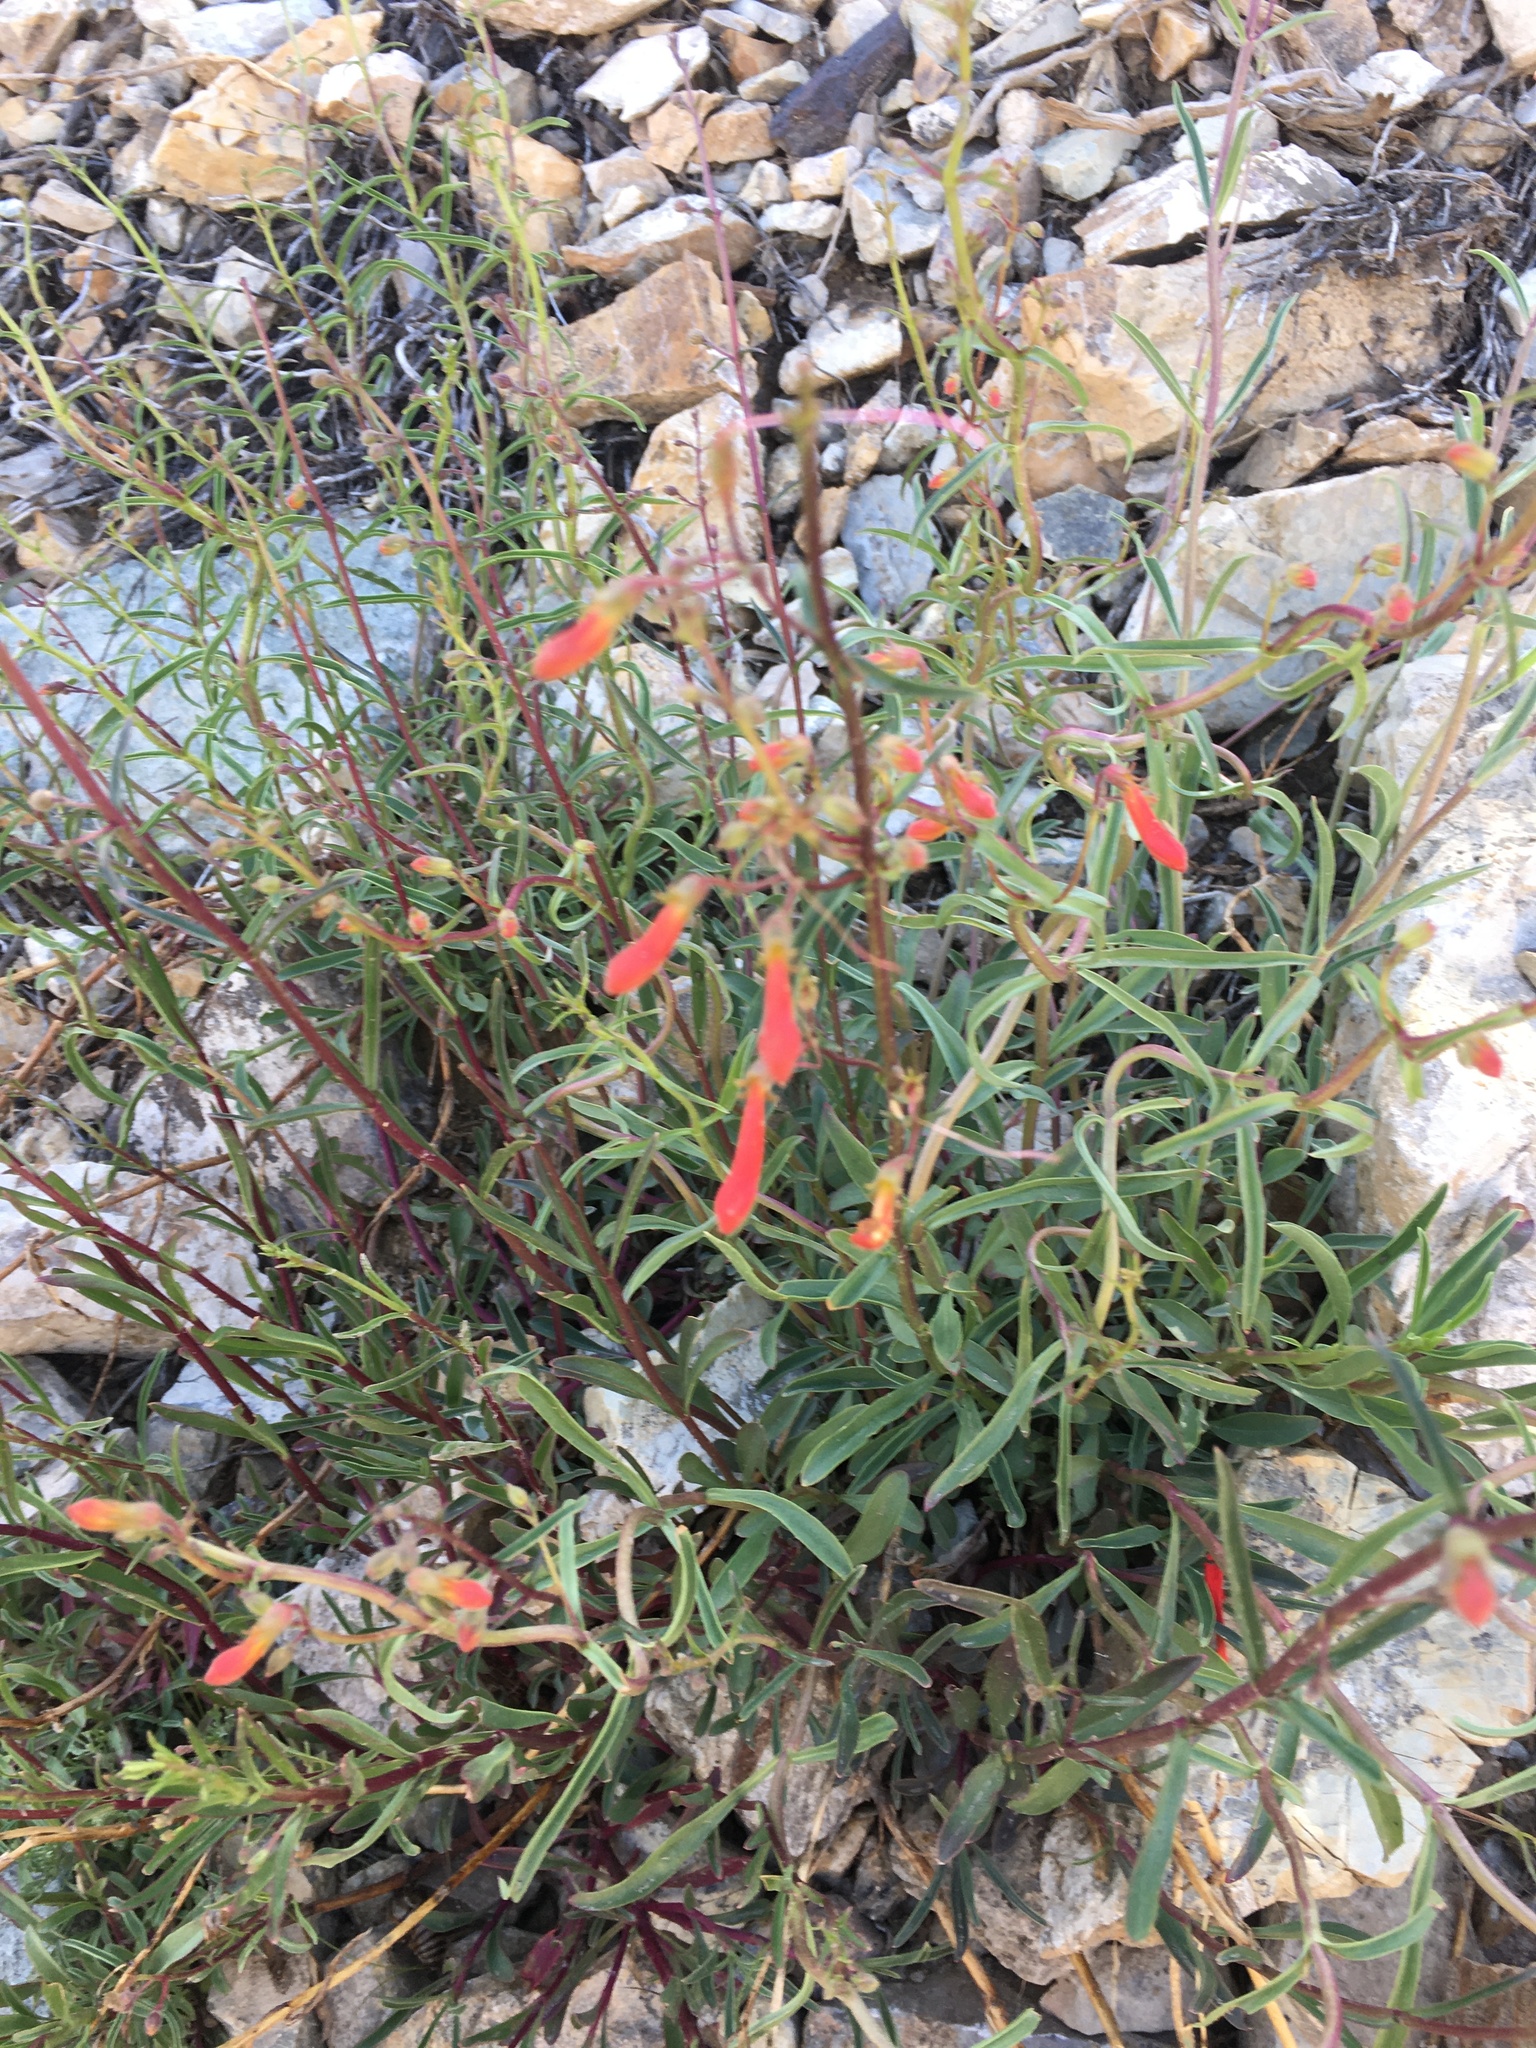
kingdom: Plantae
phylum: Tracheophyta
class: Magnoliopsida
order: Lamiales
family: Plantaginaceae
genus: Penstemon
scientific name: Penstemon rostriflorus
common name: Bridges's penstemon
